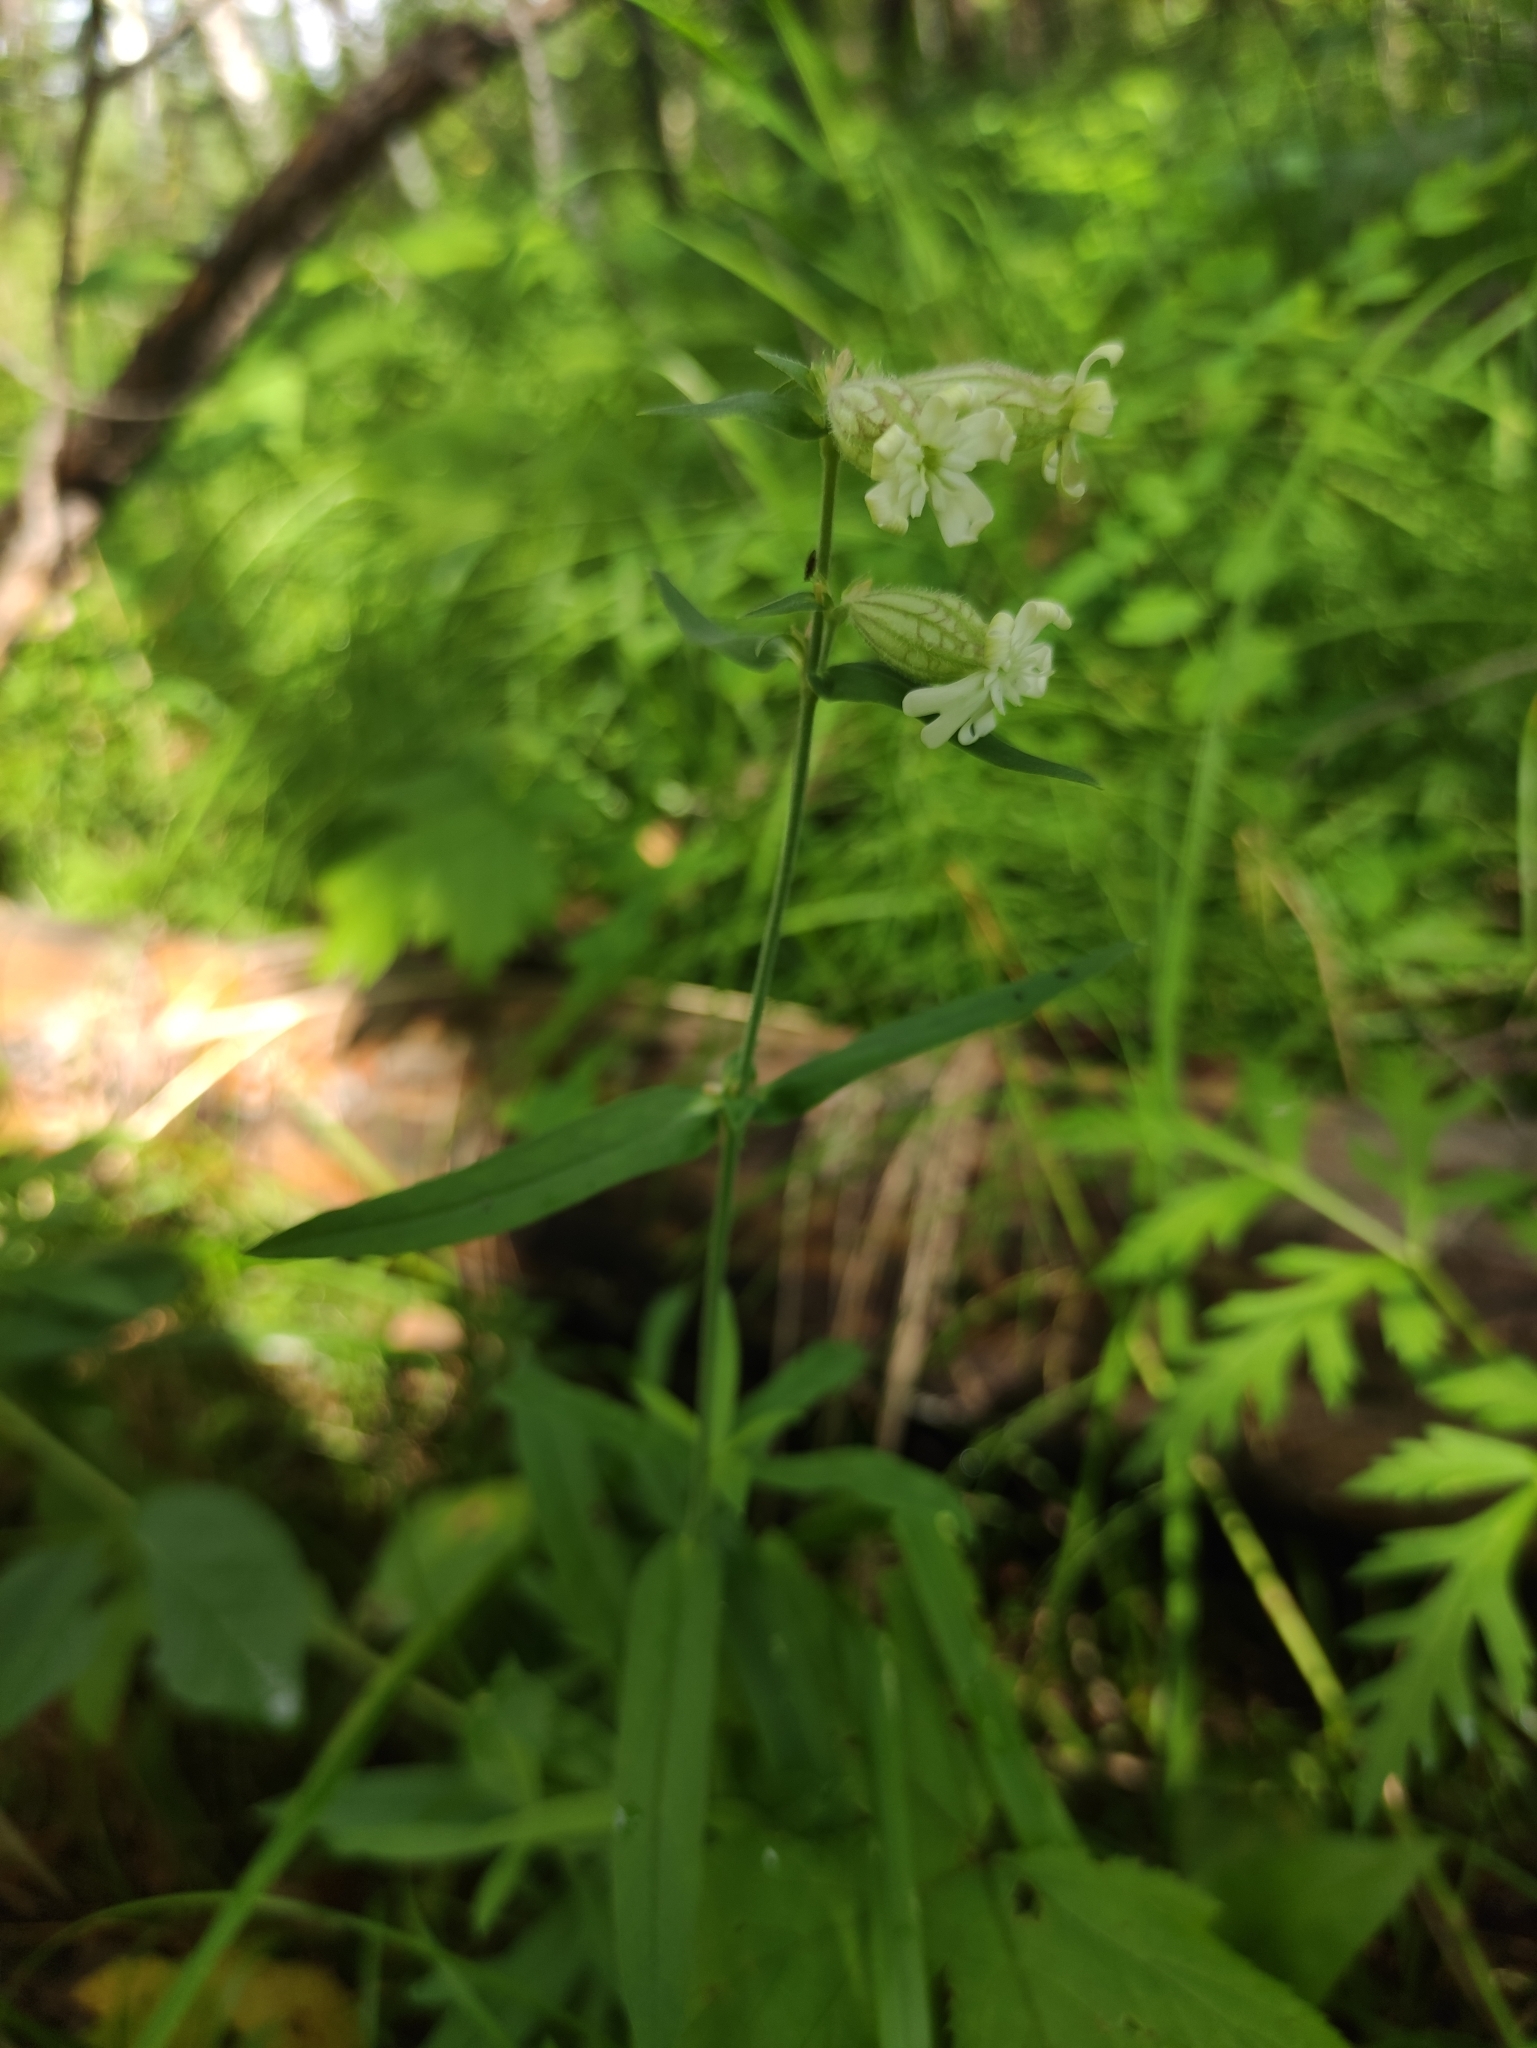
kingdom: Plantae
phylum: Tracheophyta
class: Magnoliopsida
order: Caryophyllales
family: Caryophyllaceae
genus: Silene
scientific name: Silene amoena
